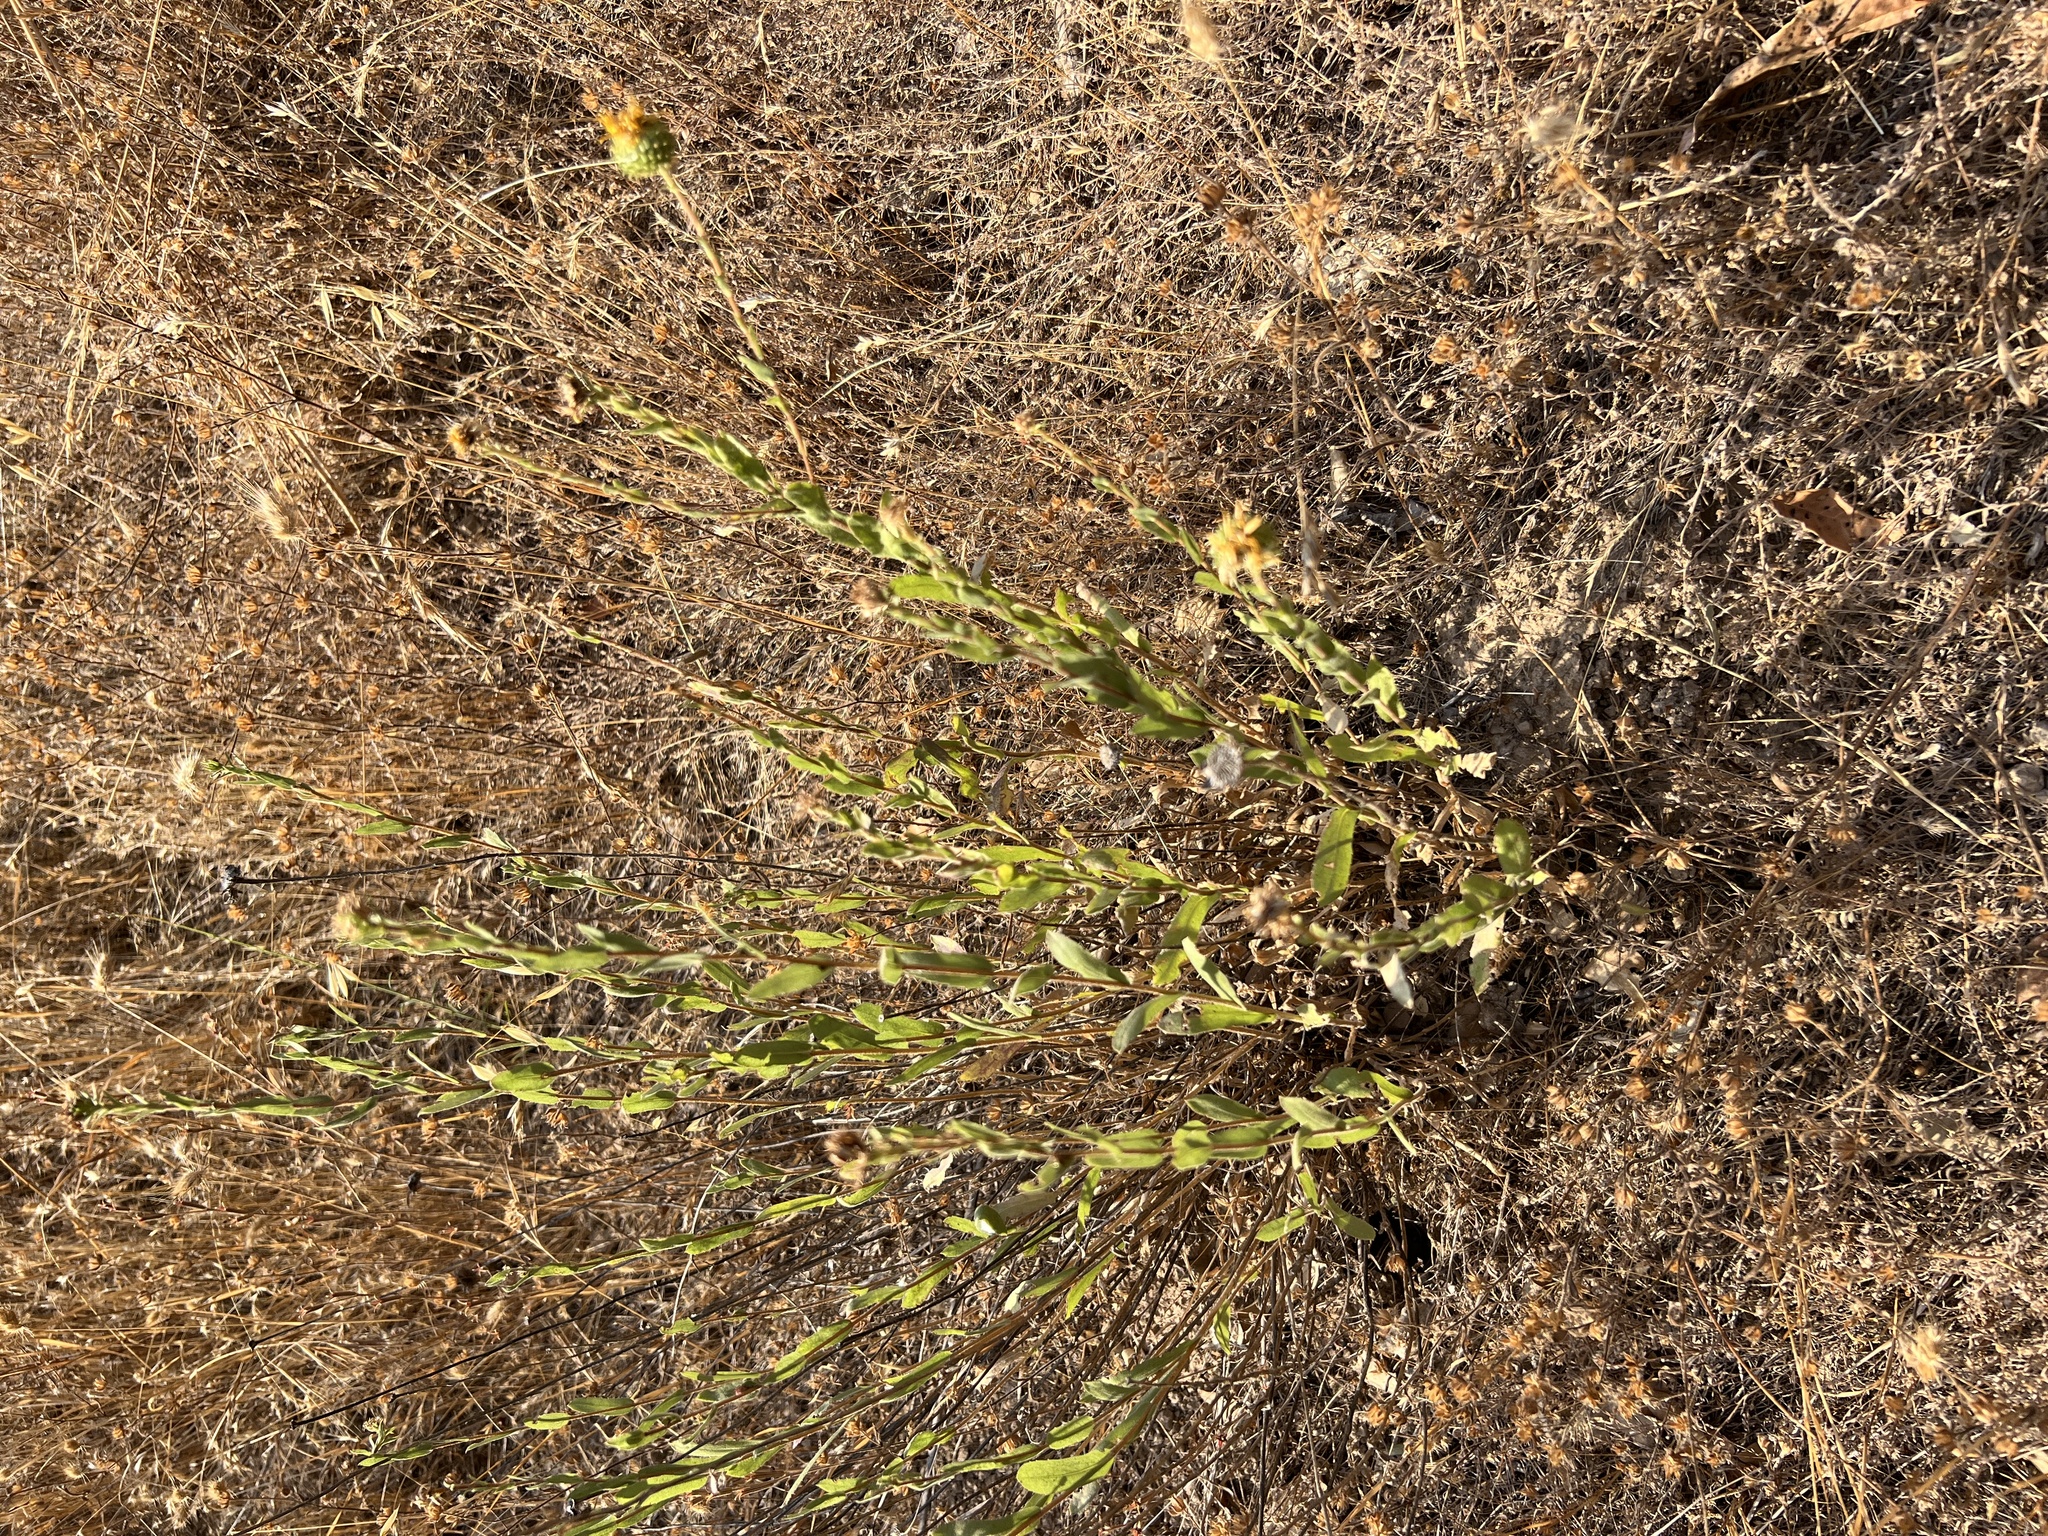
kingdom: Plantae
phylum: Tracheophyta
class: Magnoliopsida
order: Asterales
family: Asteraceae
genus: Grindelia
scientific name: Grindelia hirsutula
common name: Hairy gumweed
